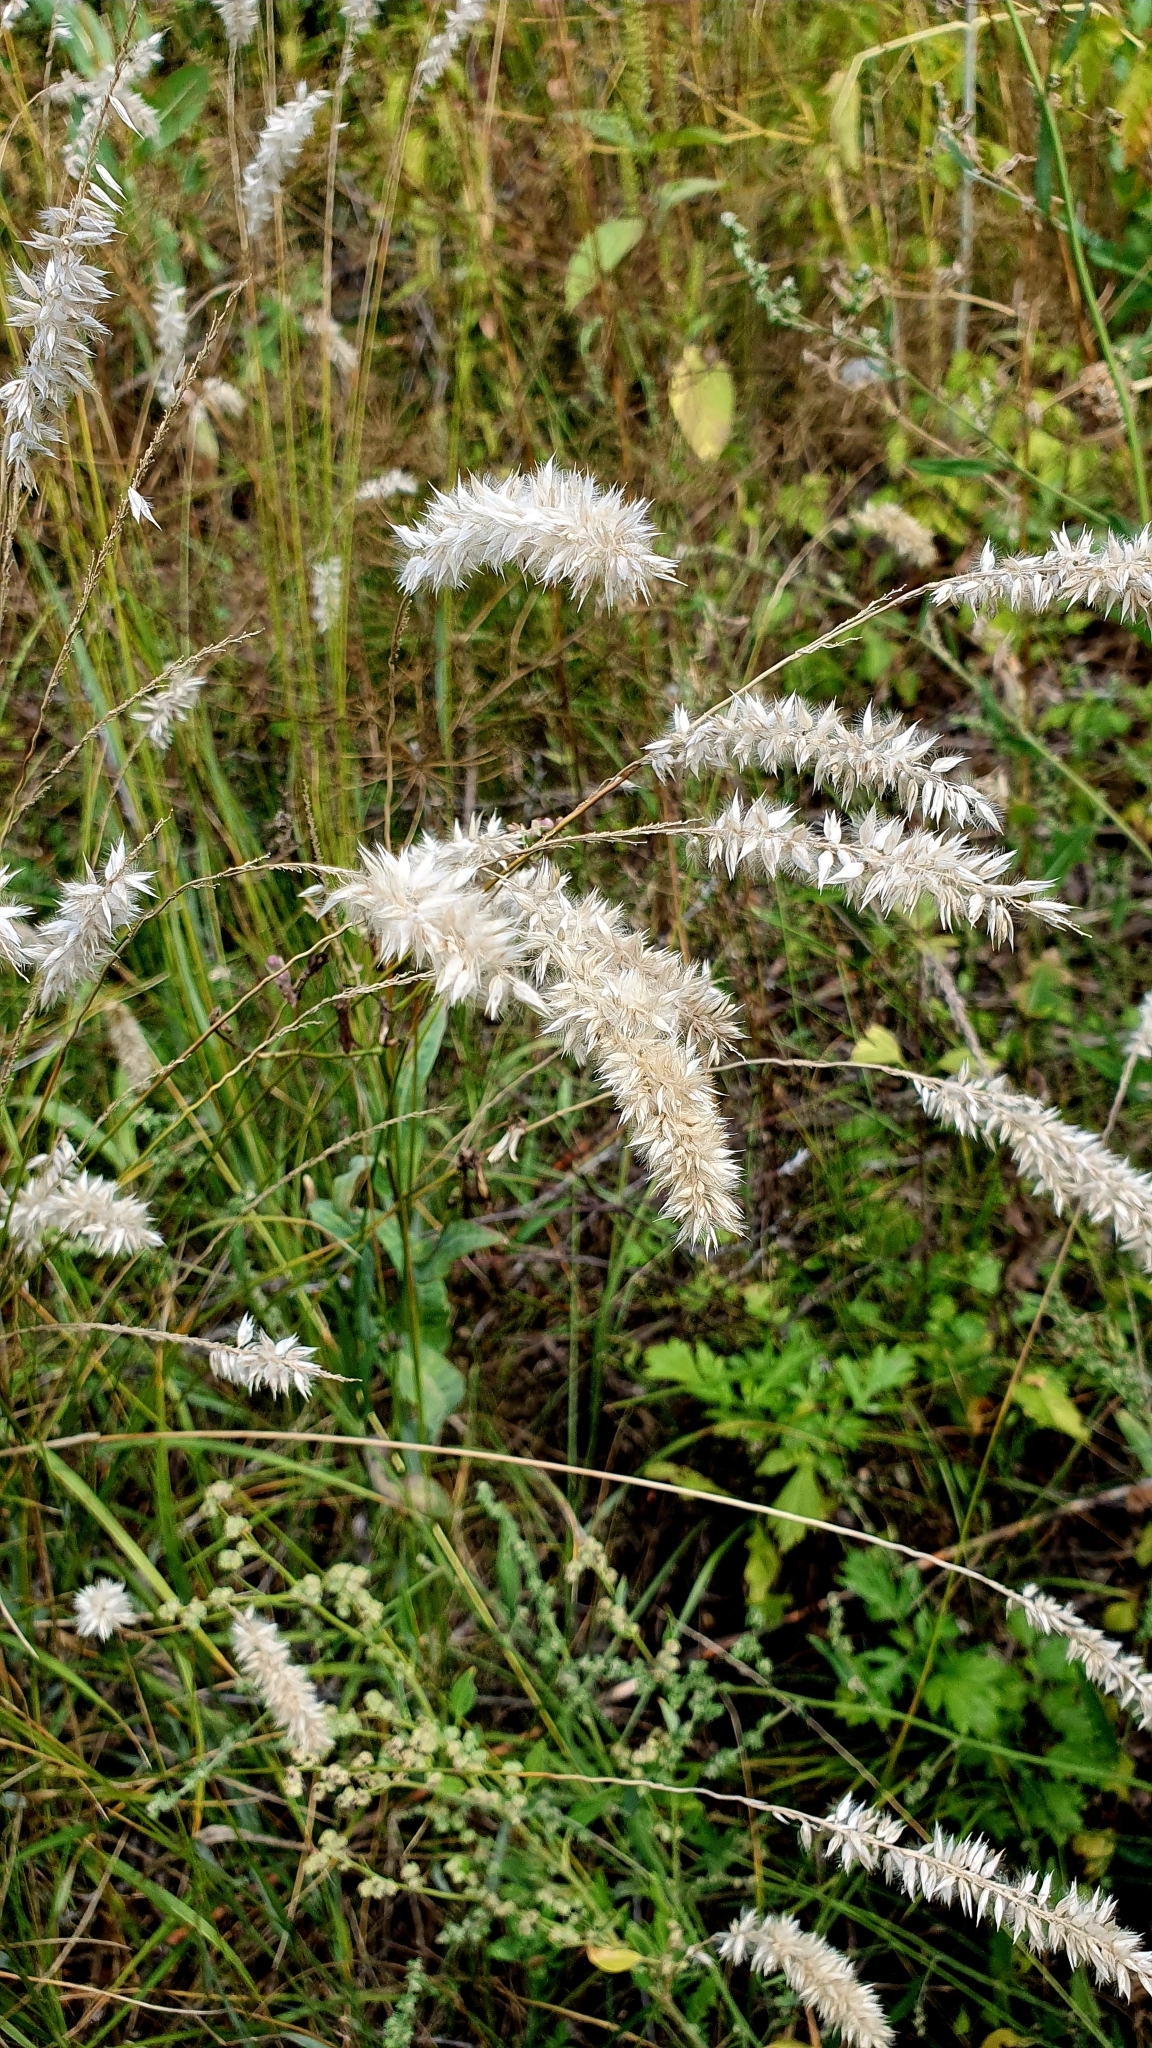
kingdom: Plantae
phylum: Tracheophyta
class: Liliopsida
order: Poales
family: Poaceae
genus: Melica
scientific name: Melica transsilvanica
